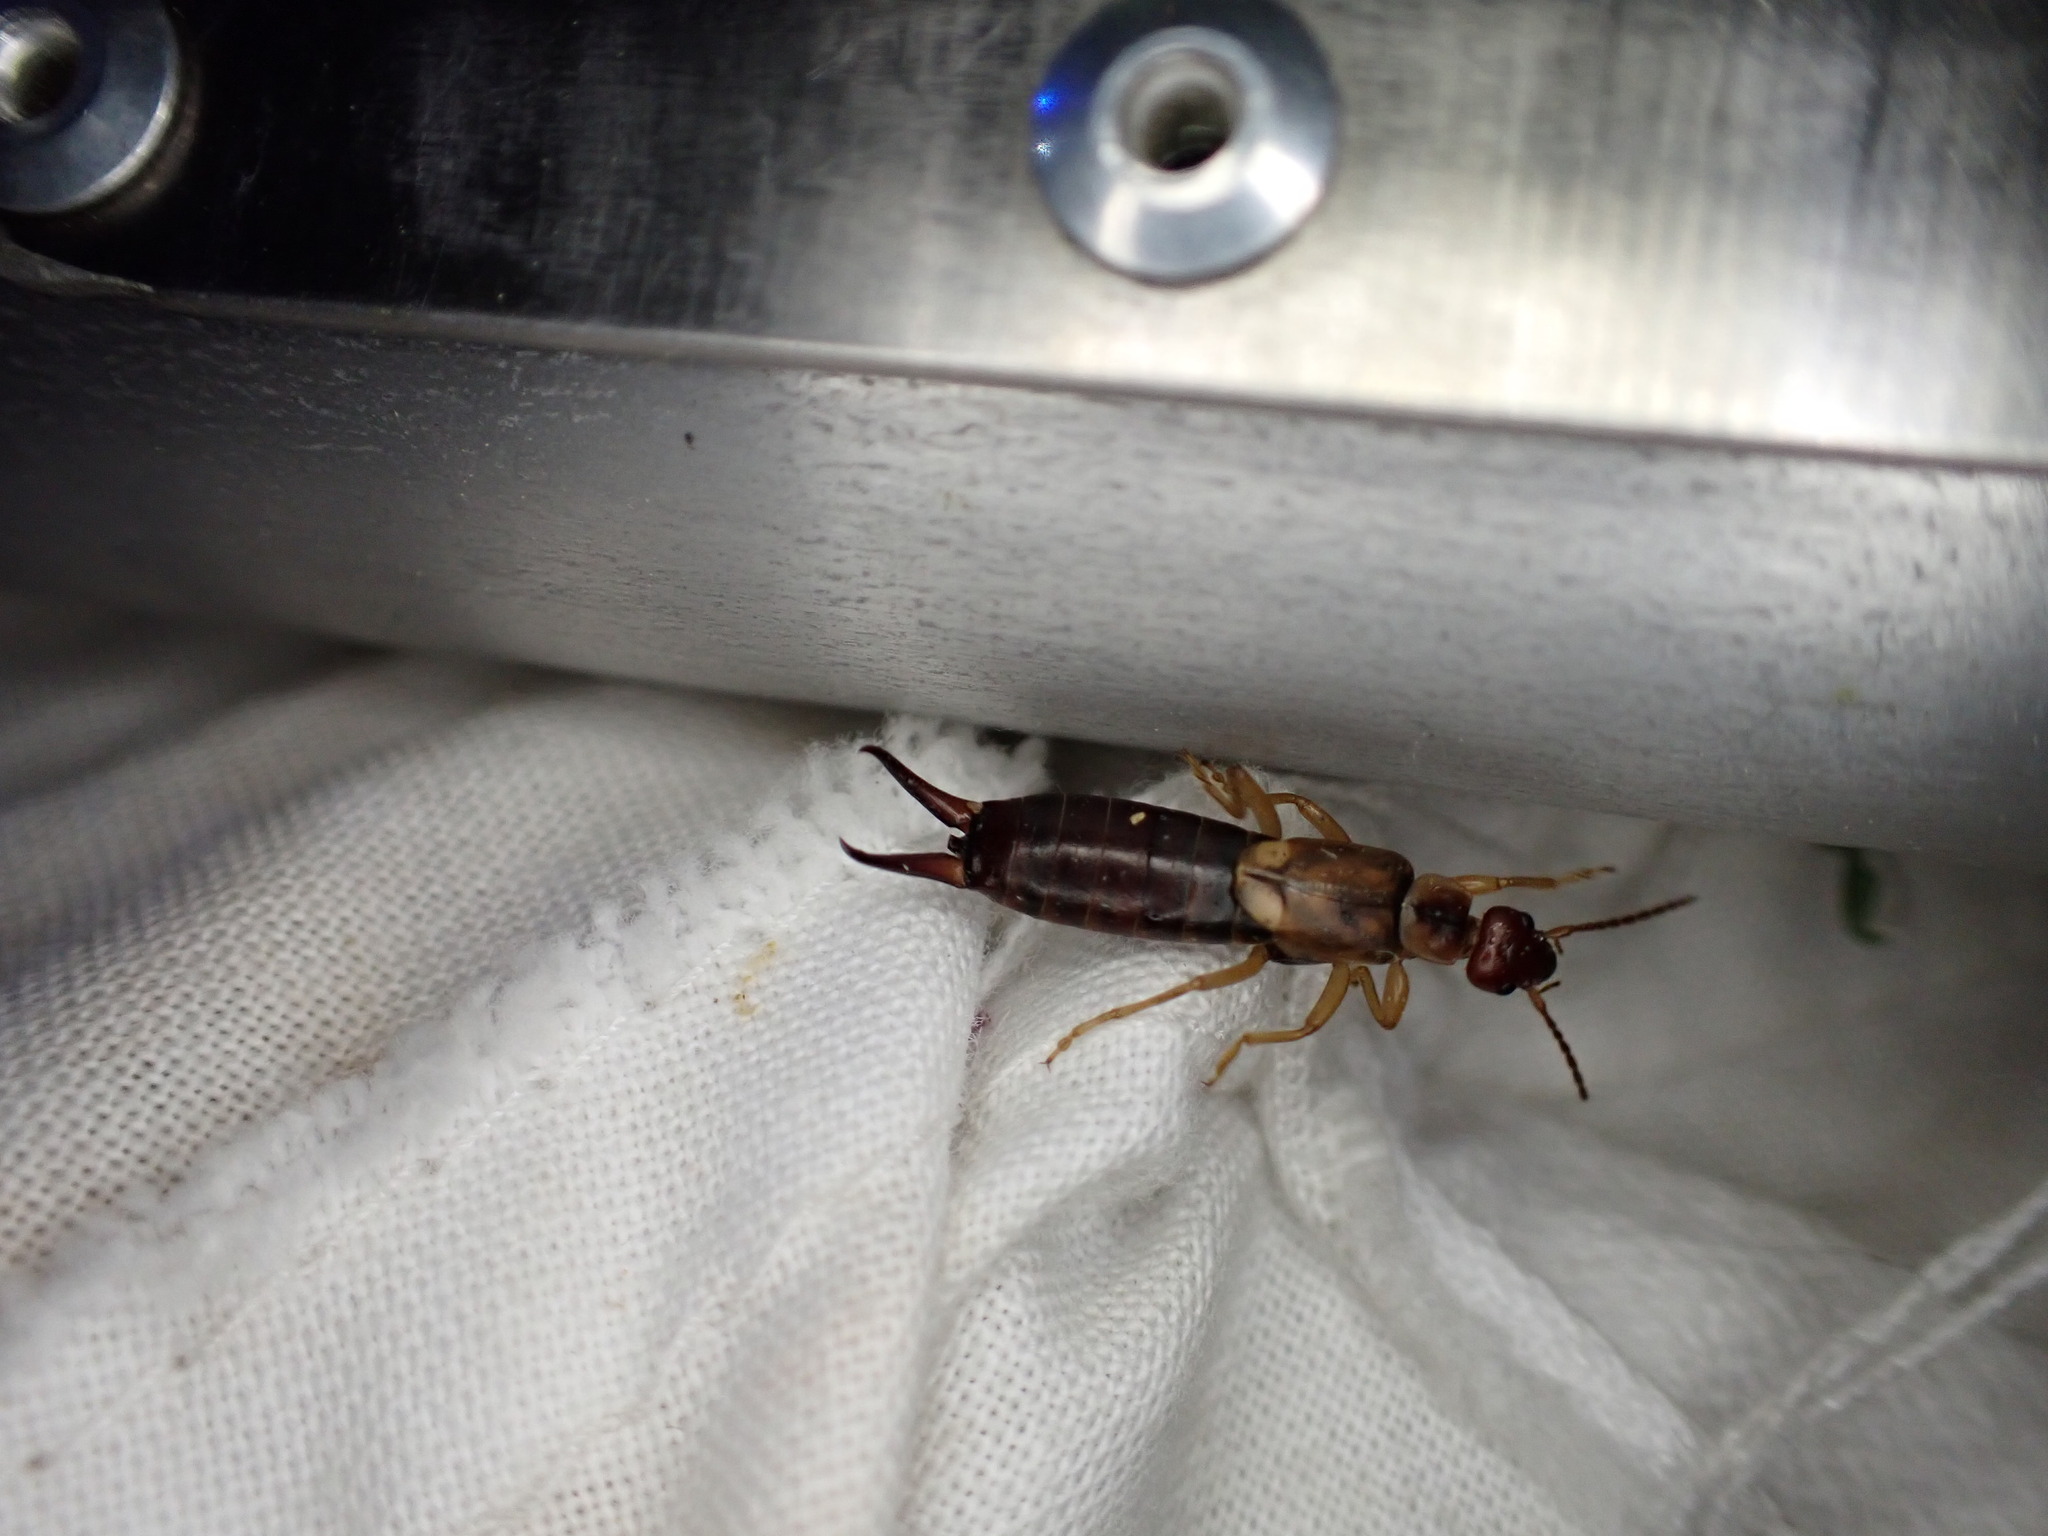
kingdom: Animalia
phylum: Arthropoda
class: Insecta
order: Dermaptera
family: Forficulidae
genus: Forficula
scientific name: Forficula
